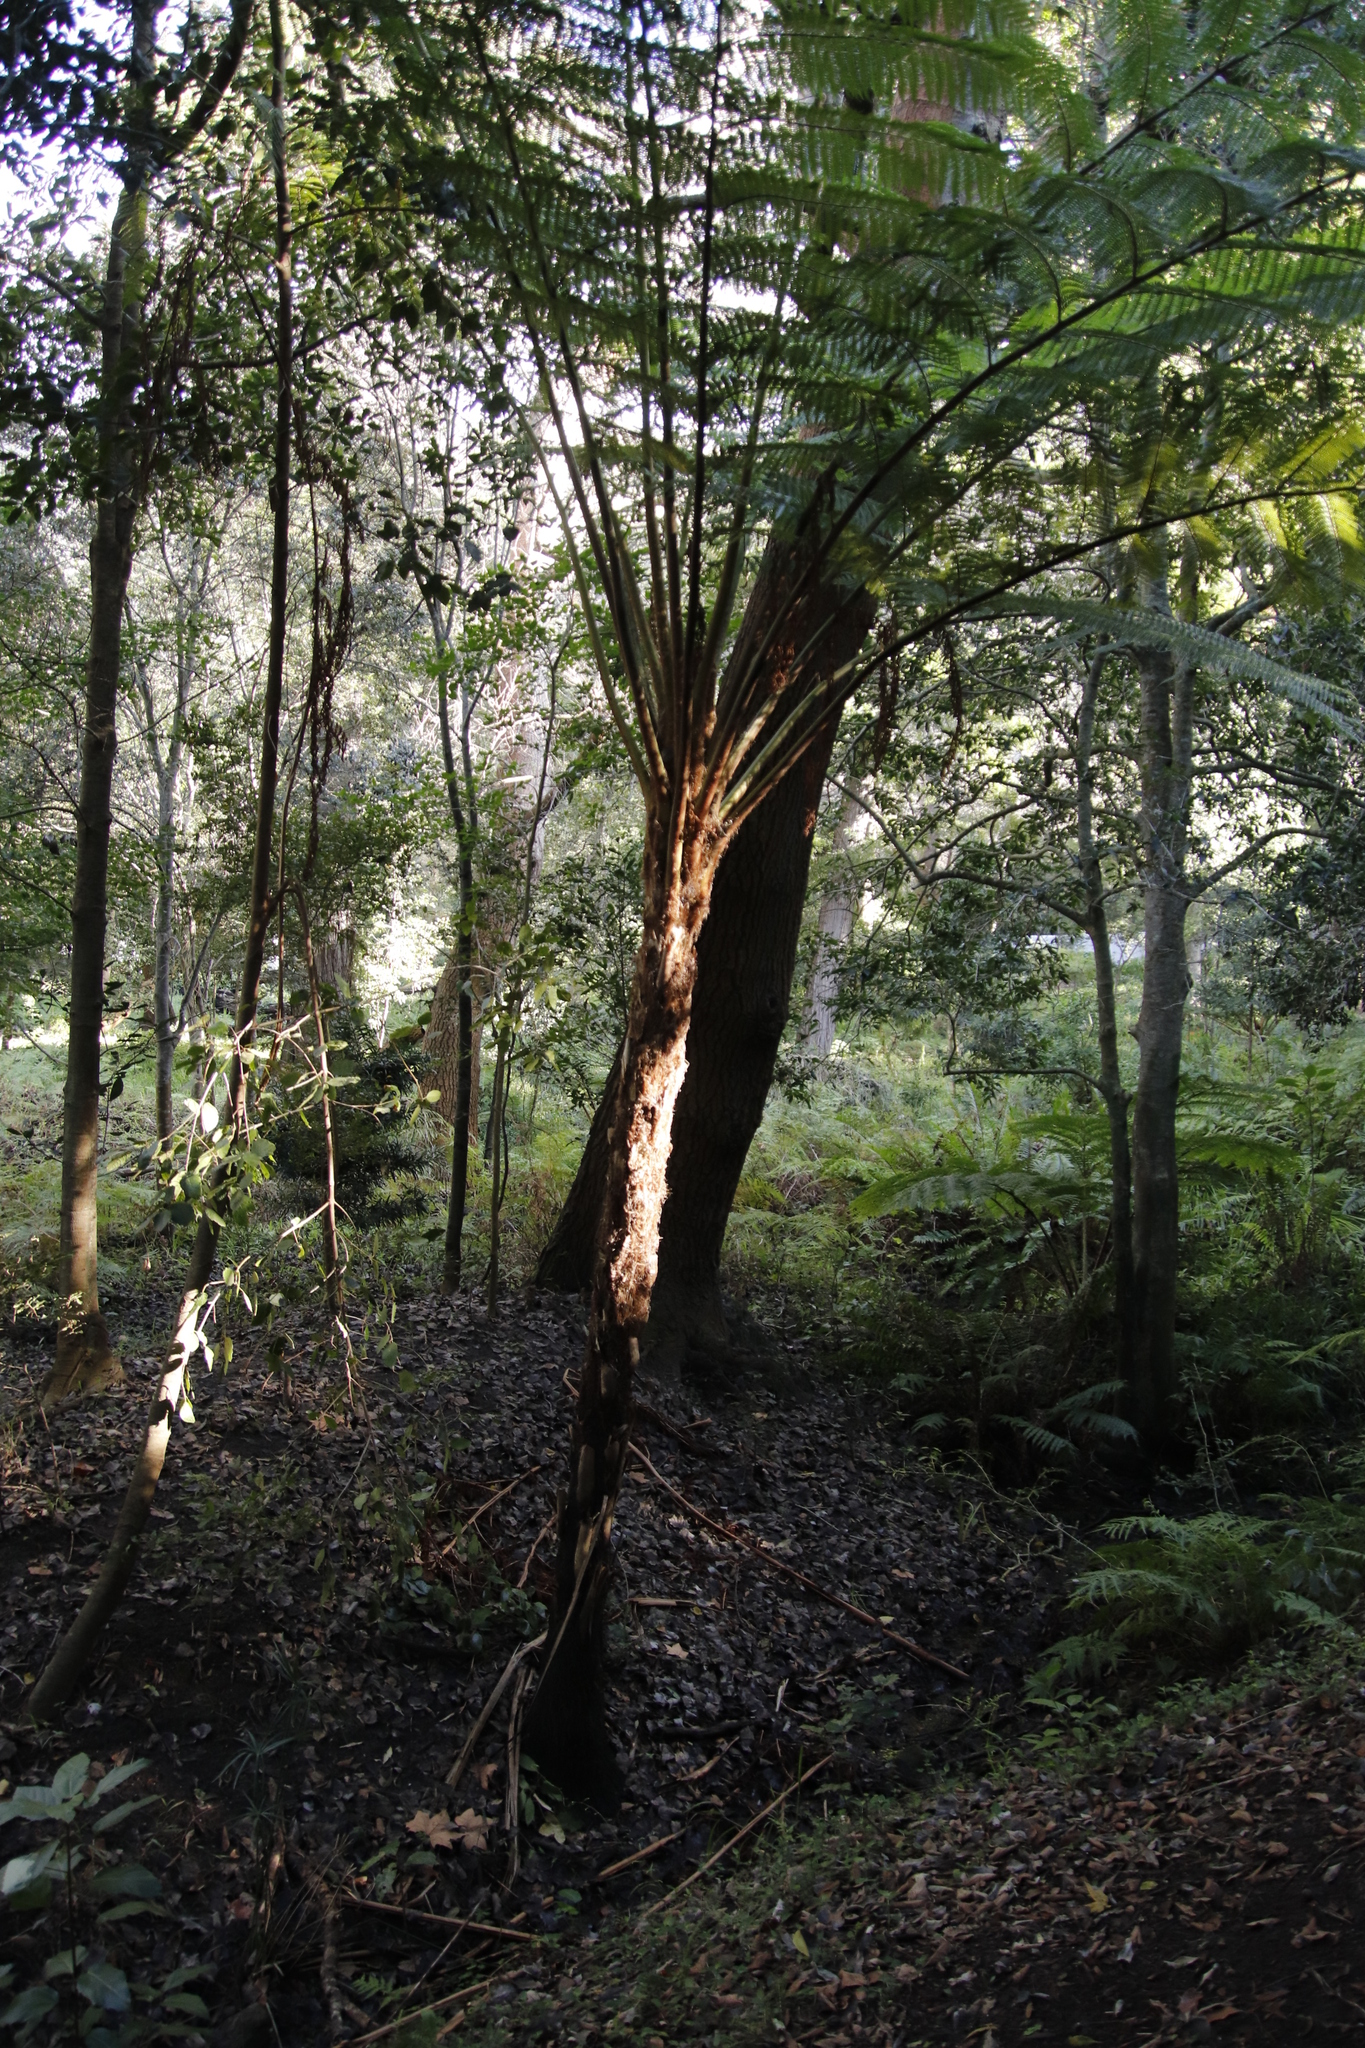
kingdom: Plantae
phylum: Tracheophyta
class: Polypodiopsida
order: Cyatheales
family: Cyatheaceae
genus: Sphaeropteris
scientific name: Sphaeropteris cooperi
